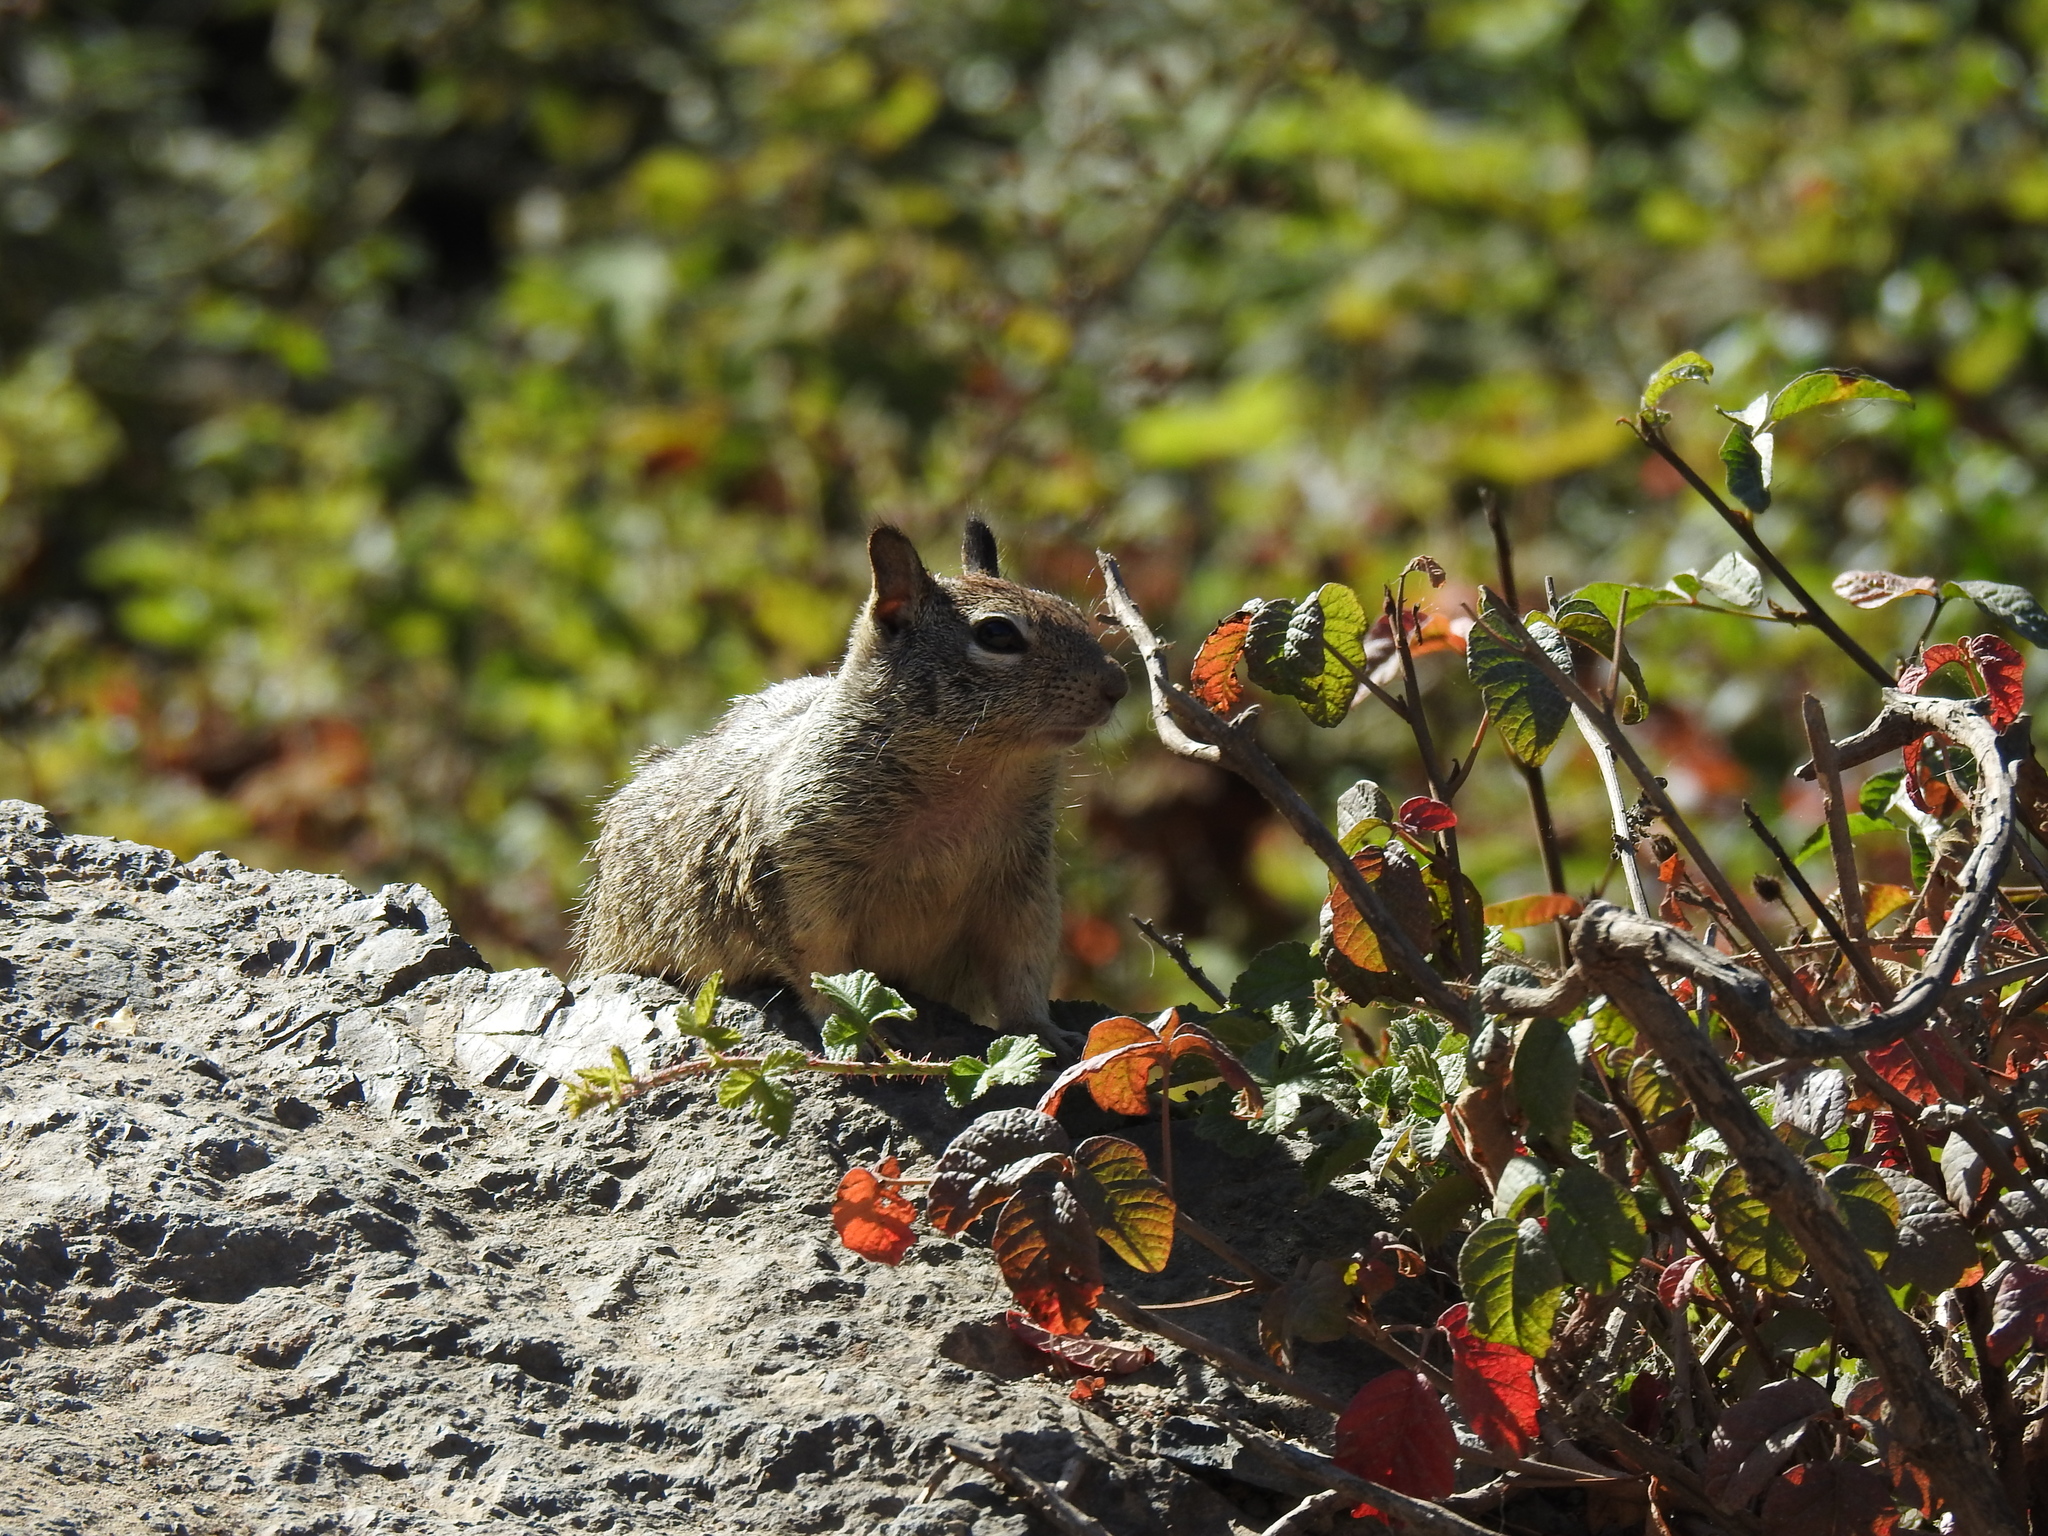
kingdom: Animalia
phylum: Chordata
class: Mammalia
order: Rodentia
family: Sciuridae
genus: Otospermophilus
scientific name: Otospermophilus beecheyi
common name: California ground squirrel
